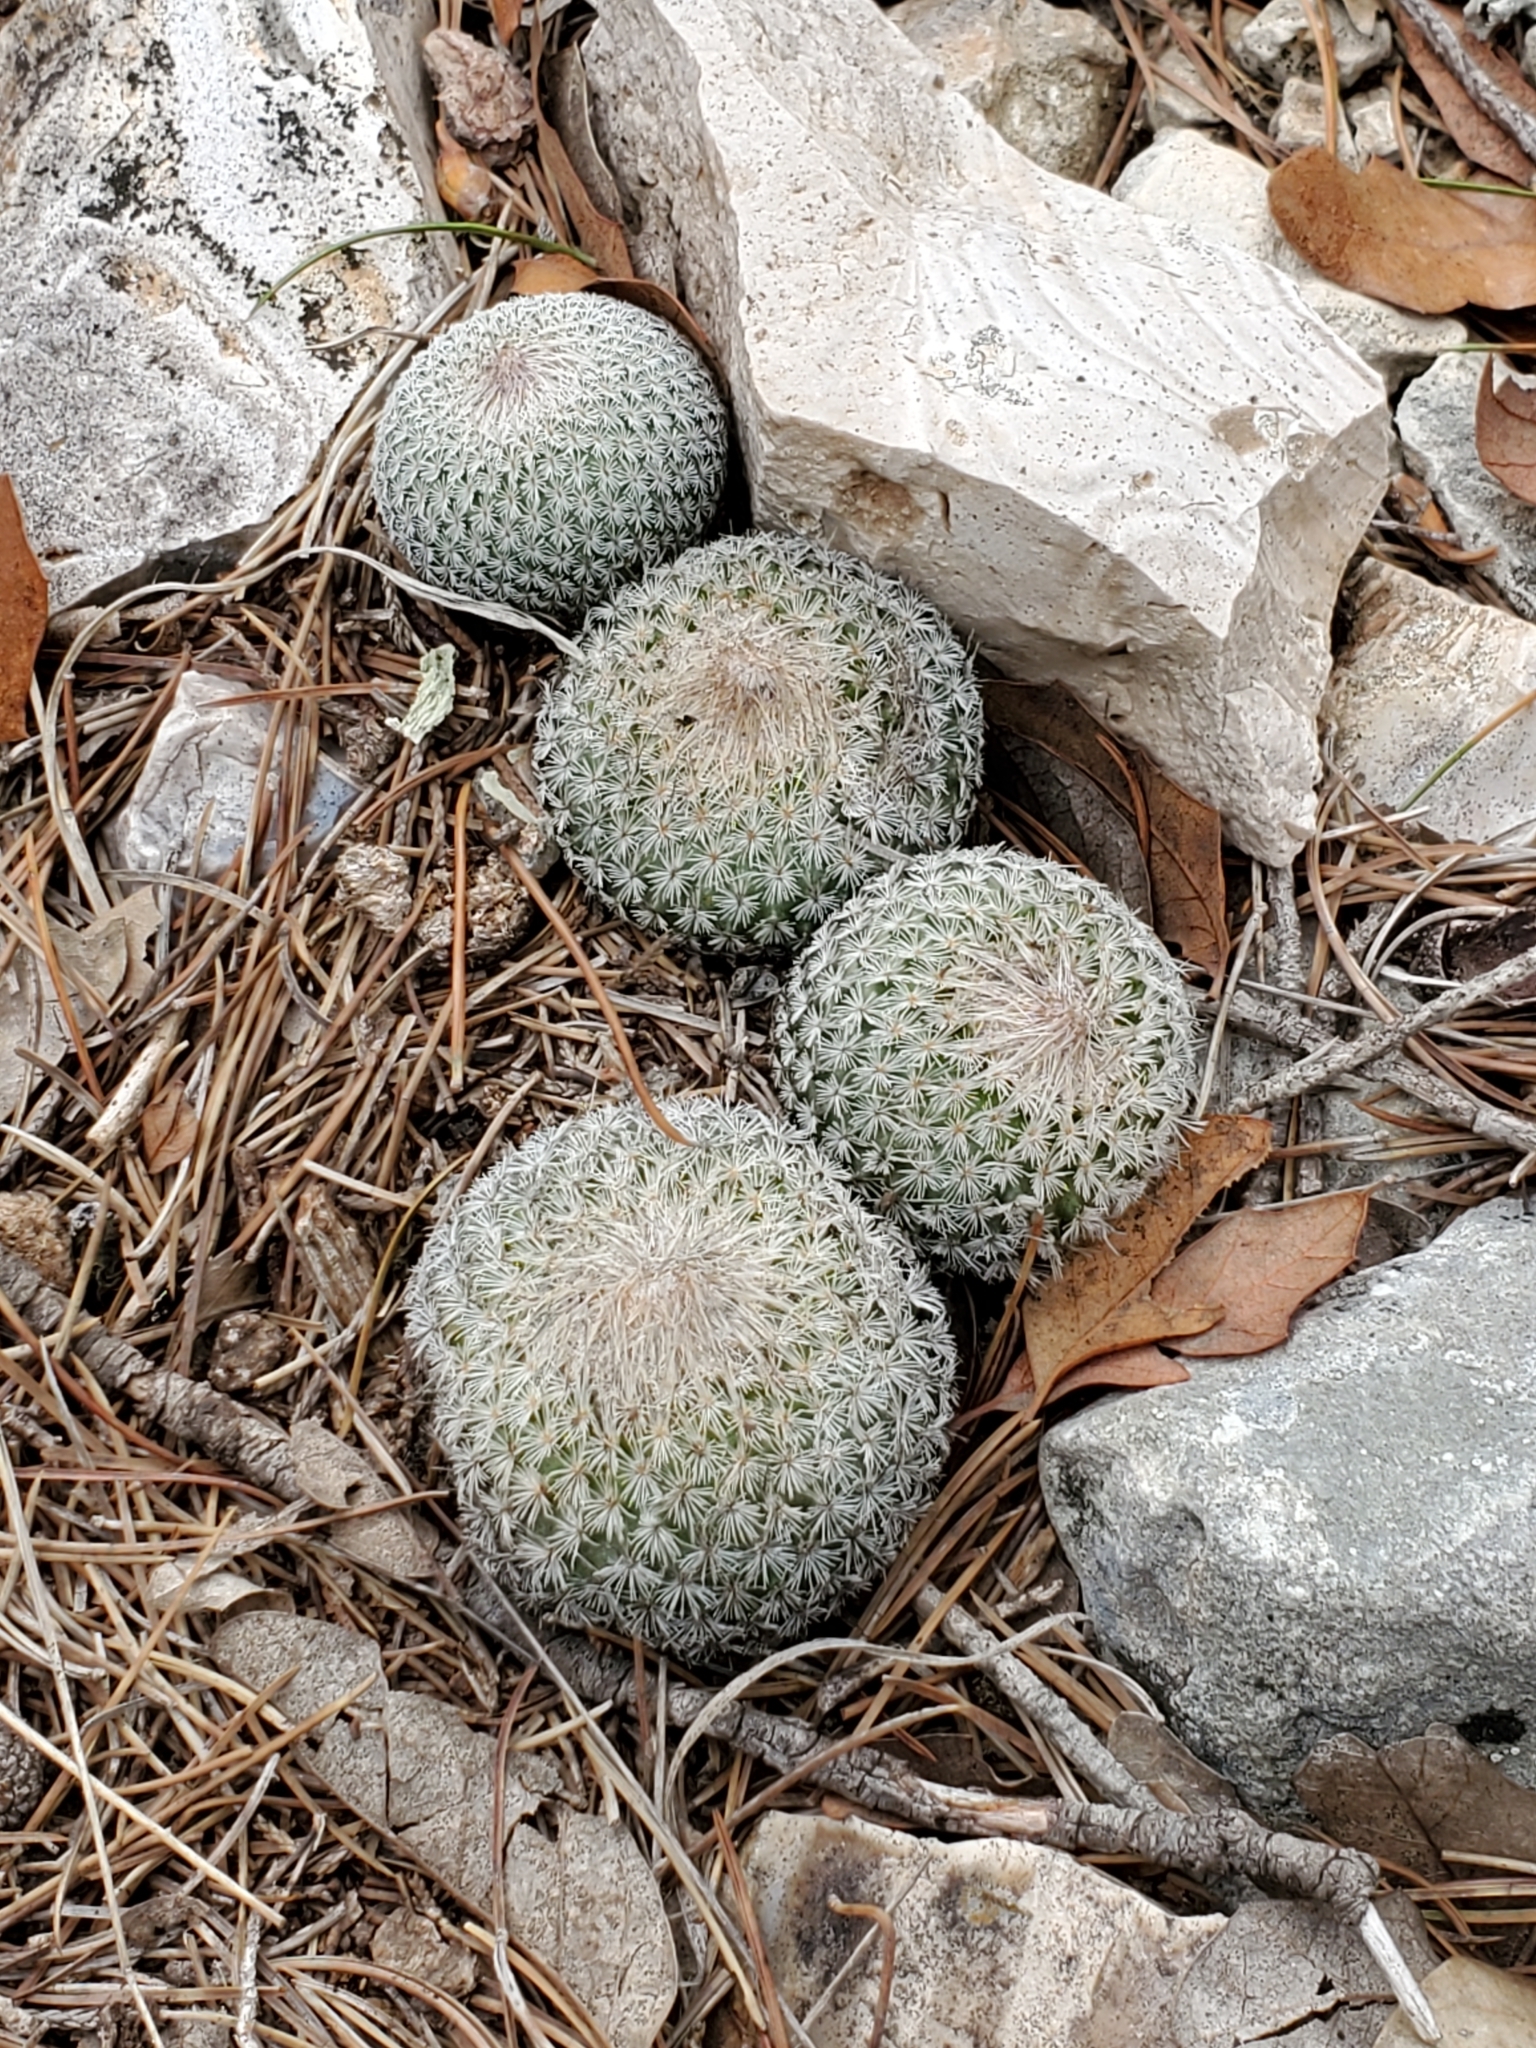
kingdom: Plantae
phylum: Tracheophyta
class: Magnoliopsida
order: Caryophyllales
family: Cactaceae
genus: Epithelantha
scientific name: Epithelantha micromeris
